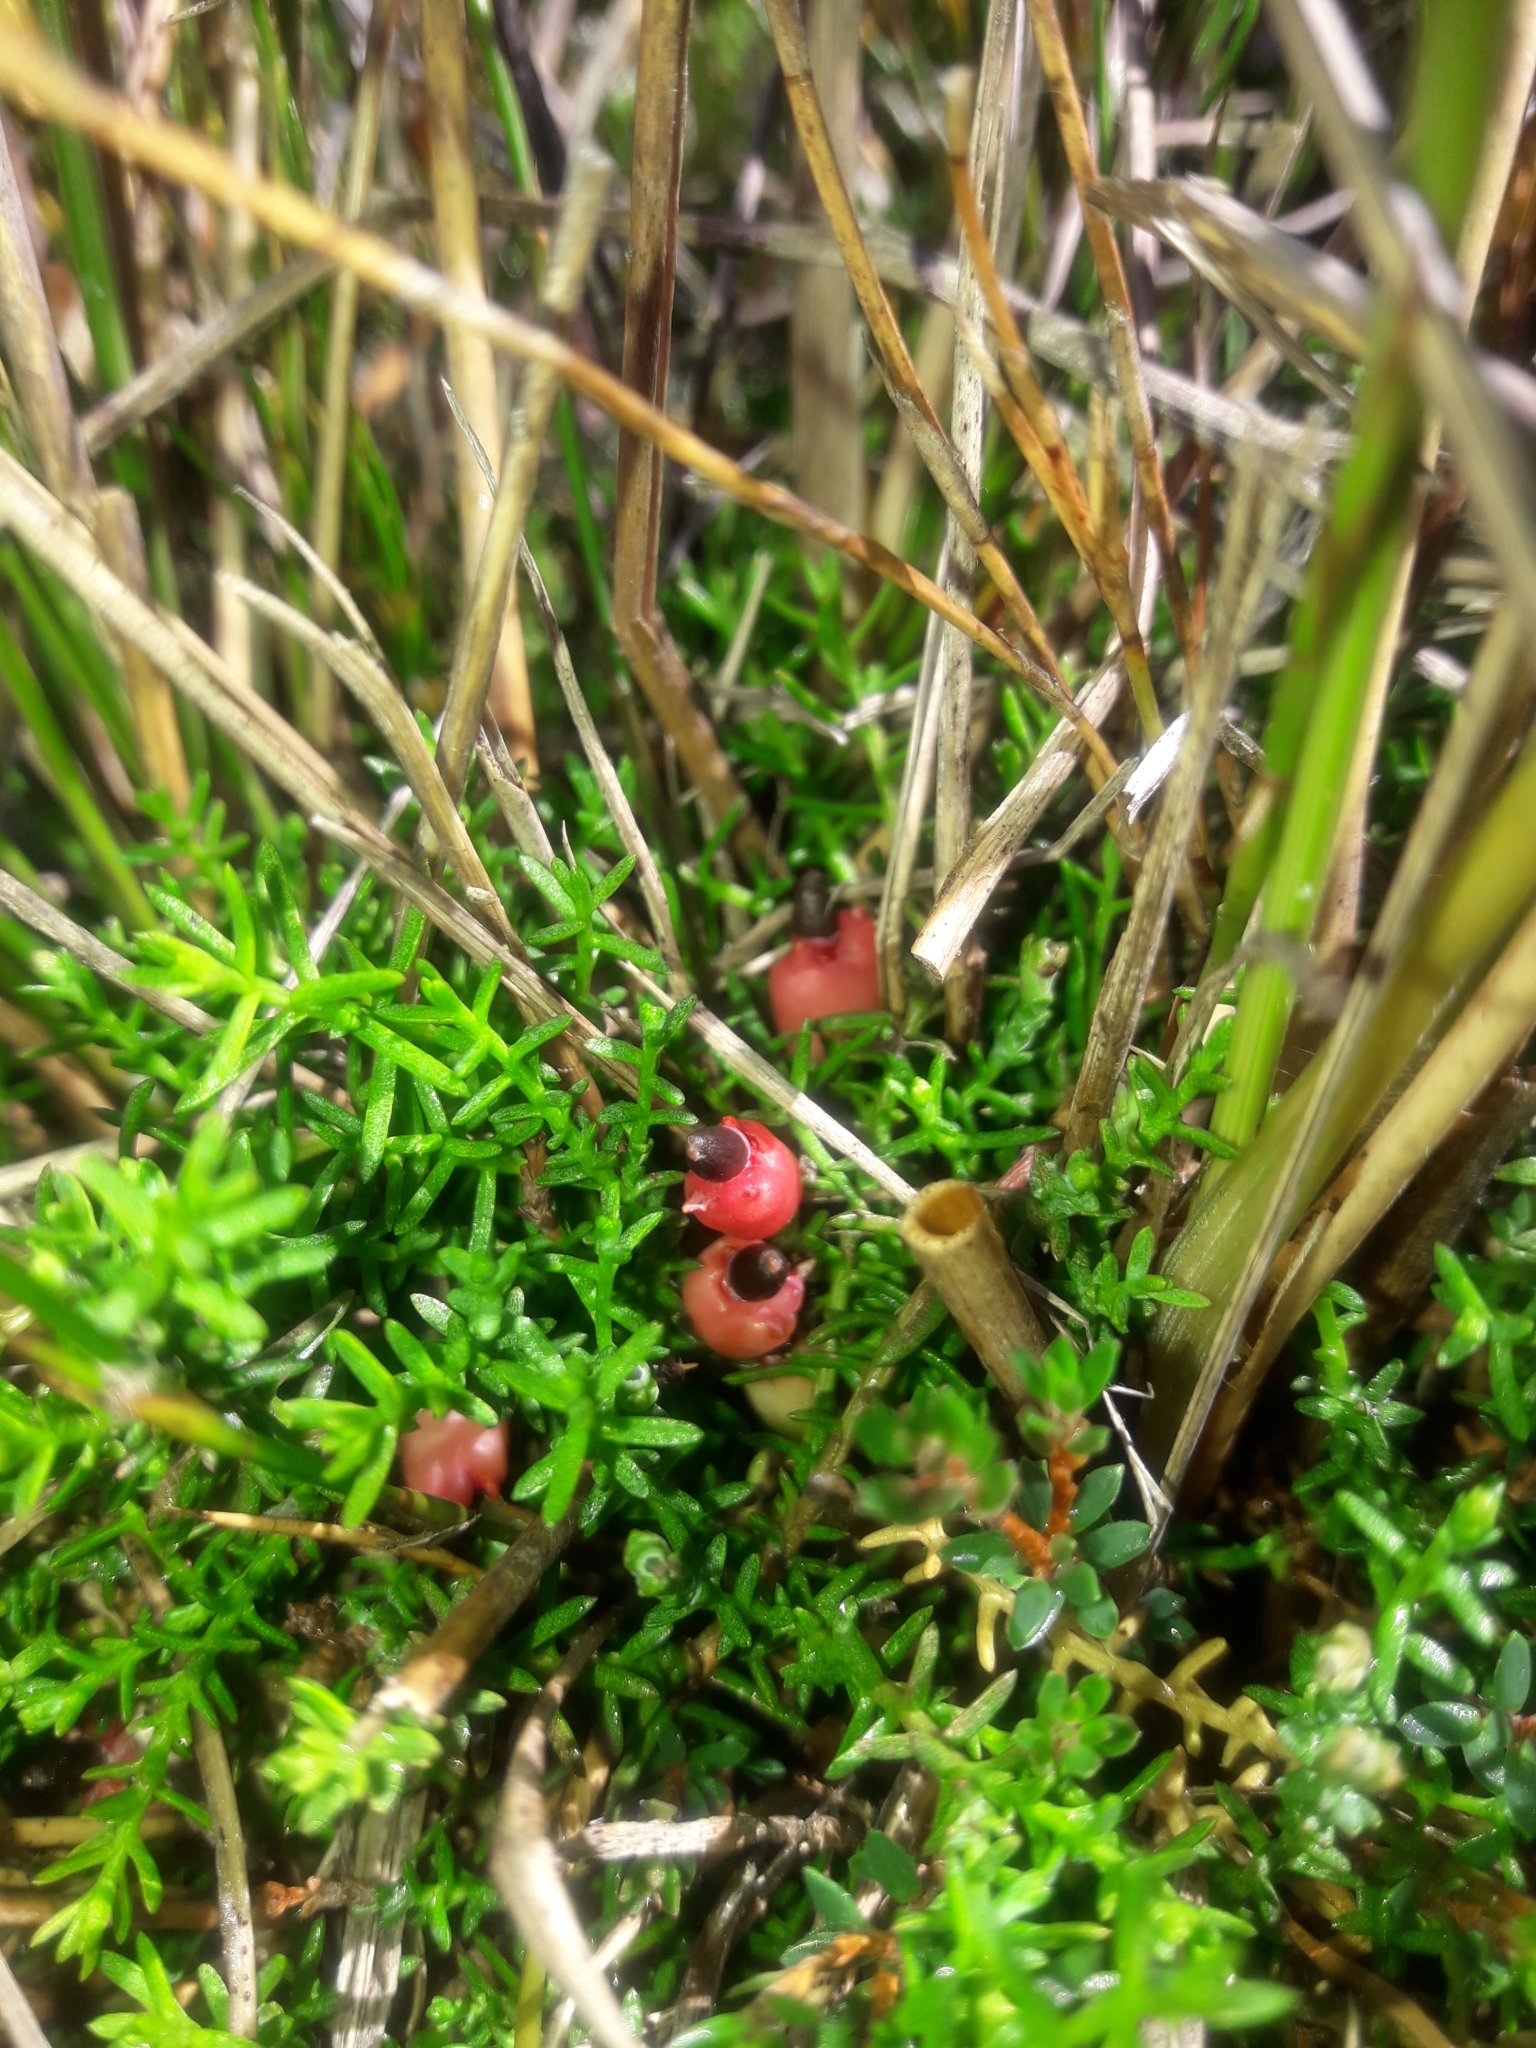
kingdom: Plantae
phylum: Tracheophyta
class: Pinopsida
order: Pinales
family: Podocarpaceae
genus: Lepidothamnus
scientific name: Lepidothamnus laxifolius
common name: Pygmy pine
